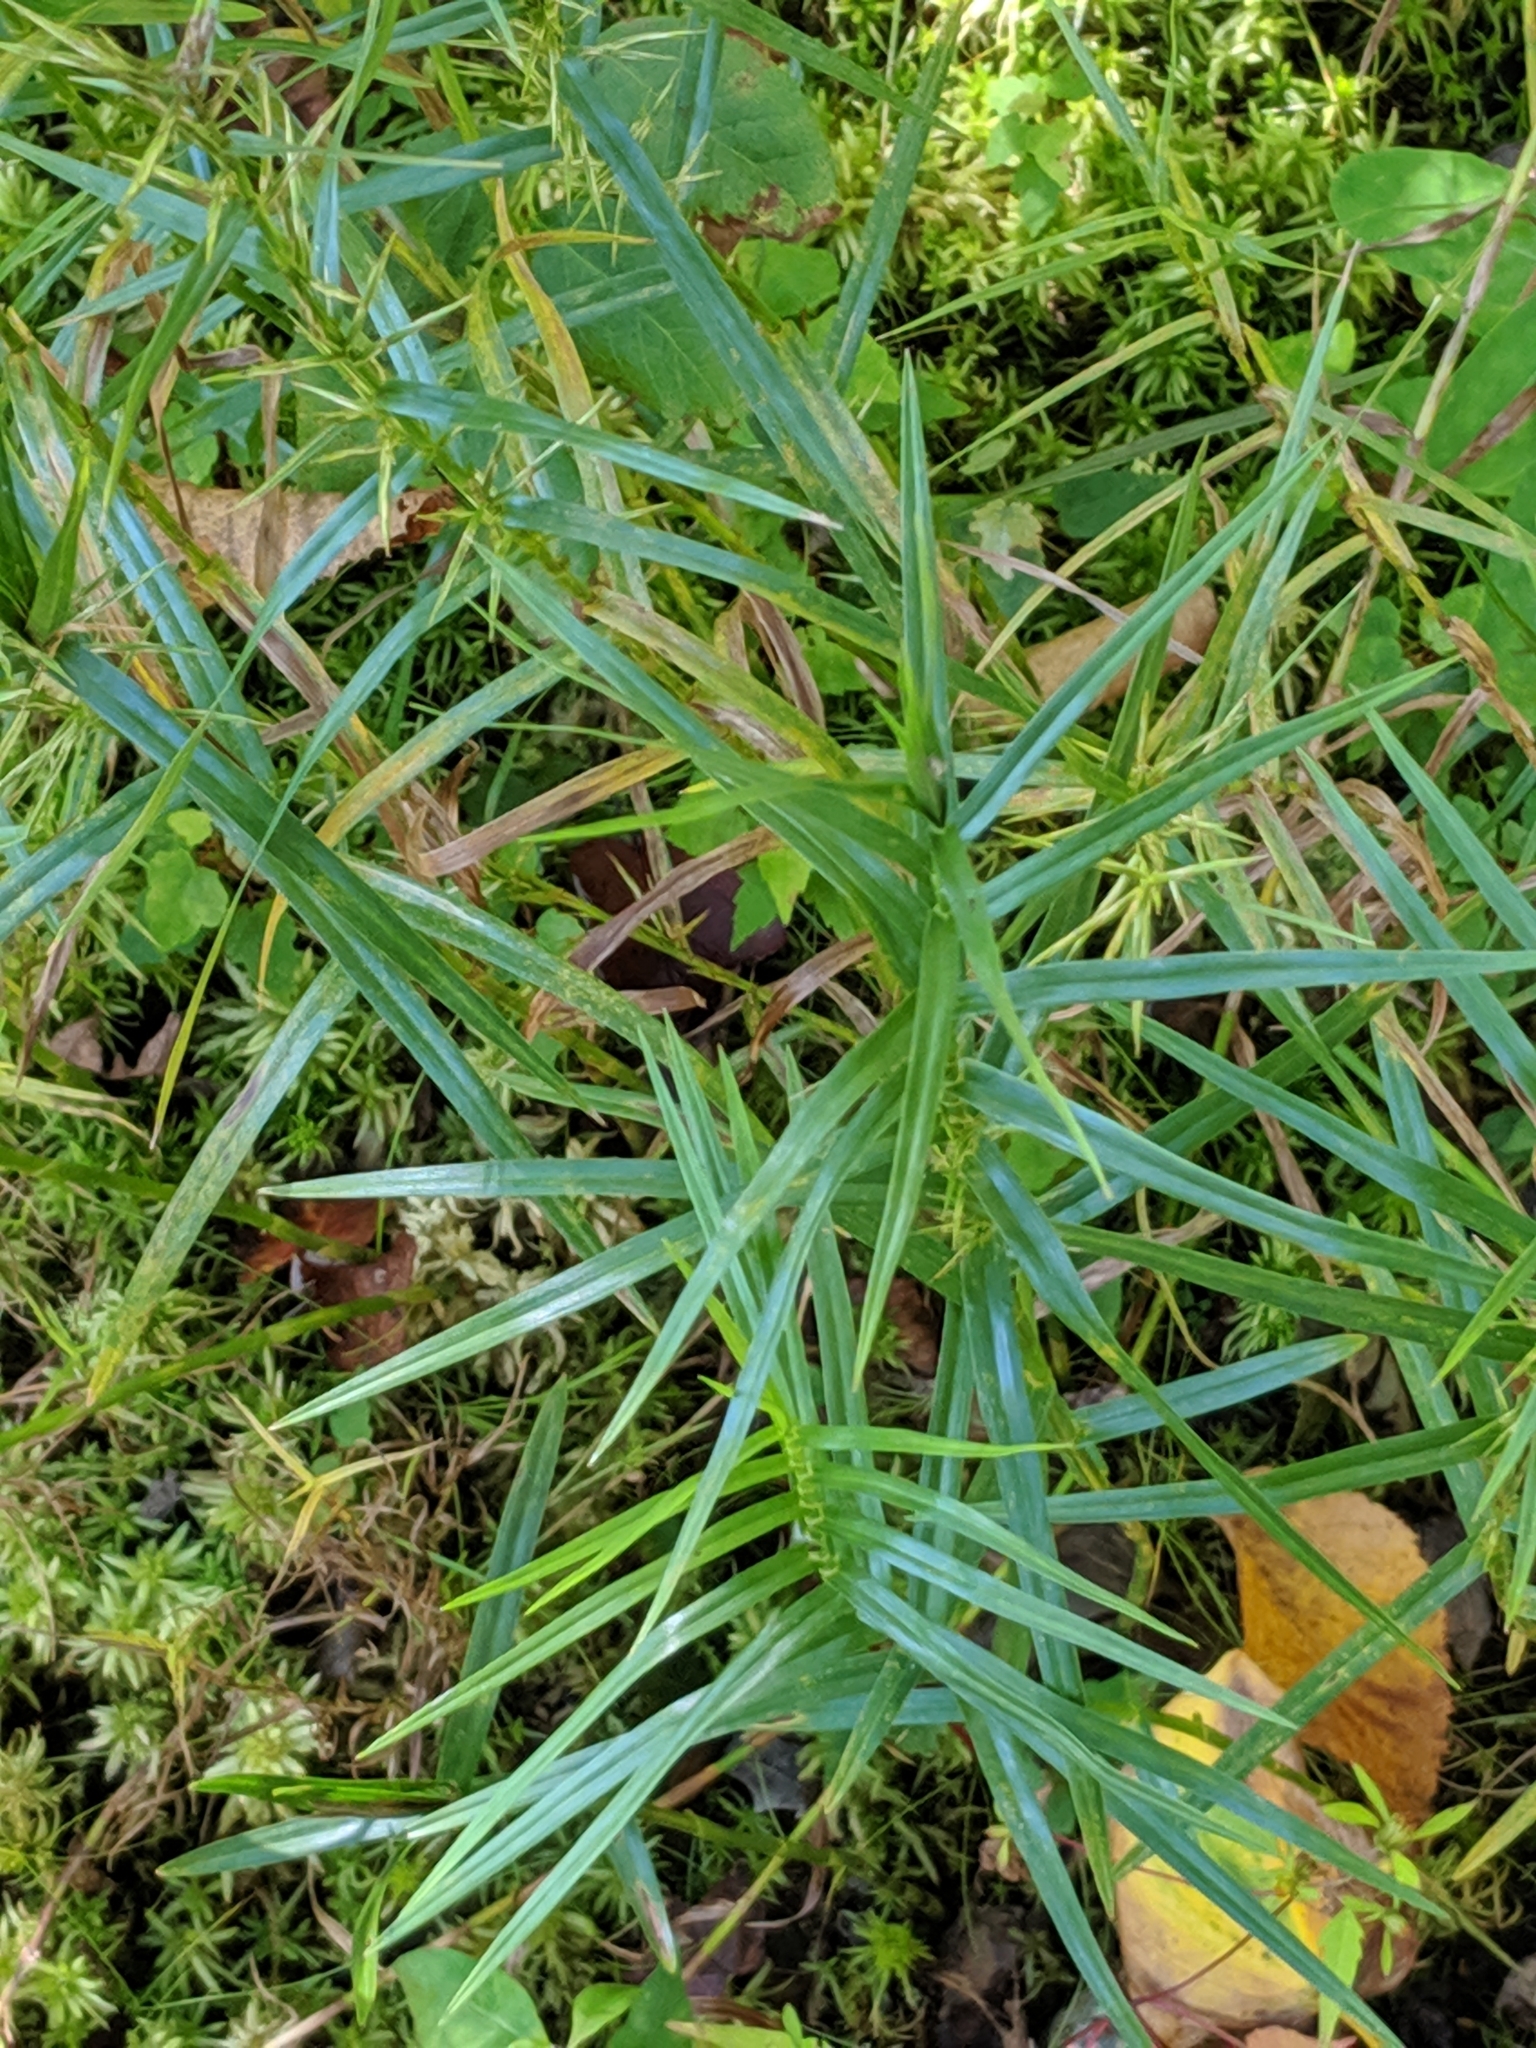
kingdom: Plantae
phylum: Tracheophyta
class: Liliopsida
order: Poales
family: Cyperaceae
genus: Dulichium
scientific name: Dulichium arundinaceum
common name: Three-way sedge
